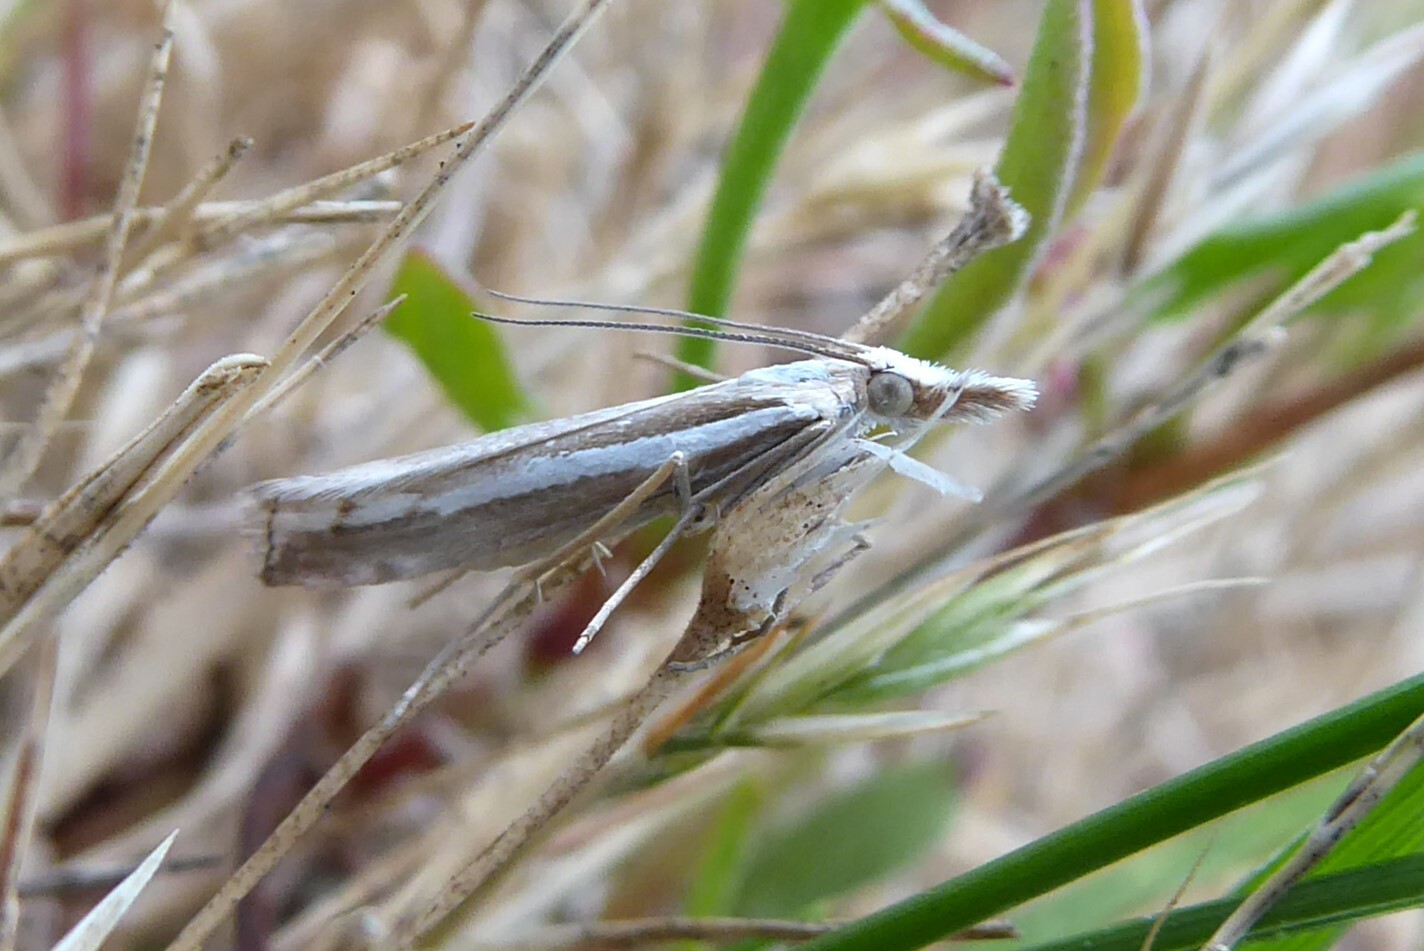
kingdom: Animalia
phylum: Arthropoda
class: Insecta
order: Lepidoptera
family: Crambidae
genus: Orocrambus
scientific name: Orocrambus vittellus
